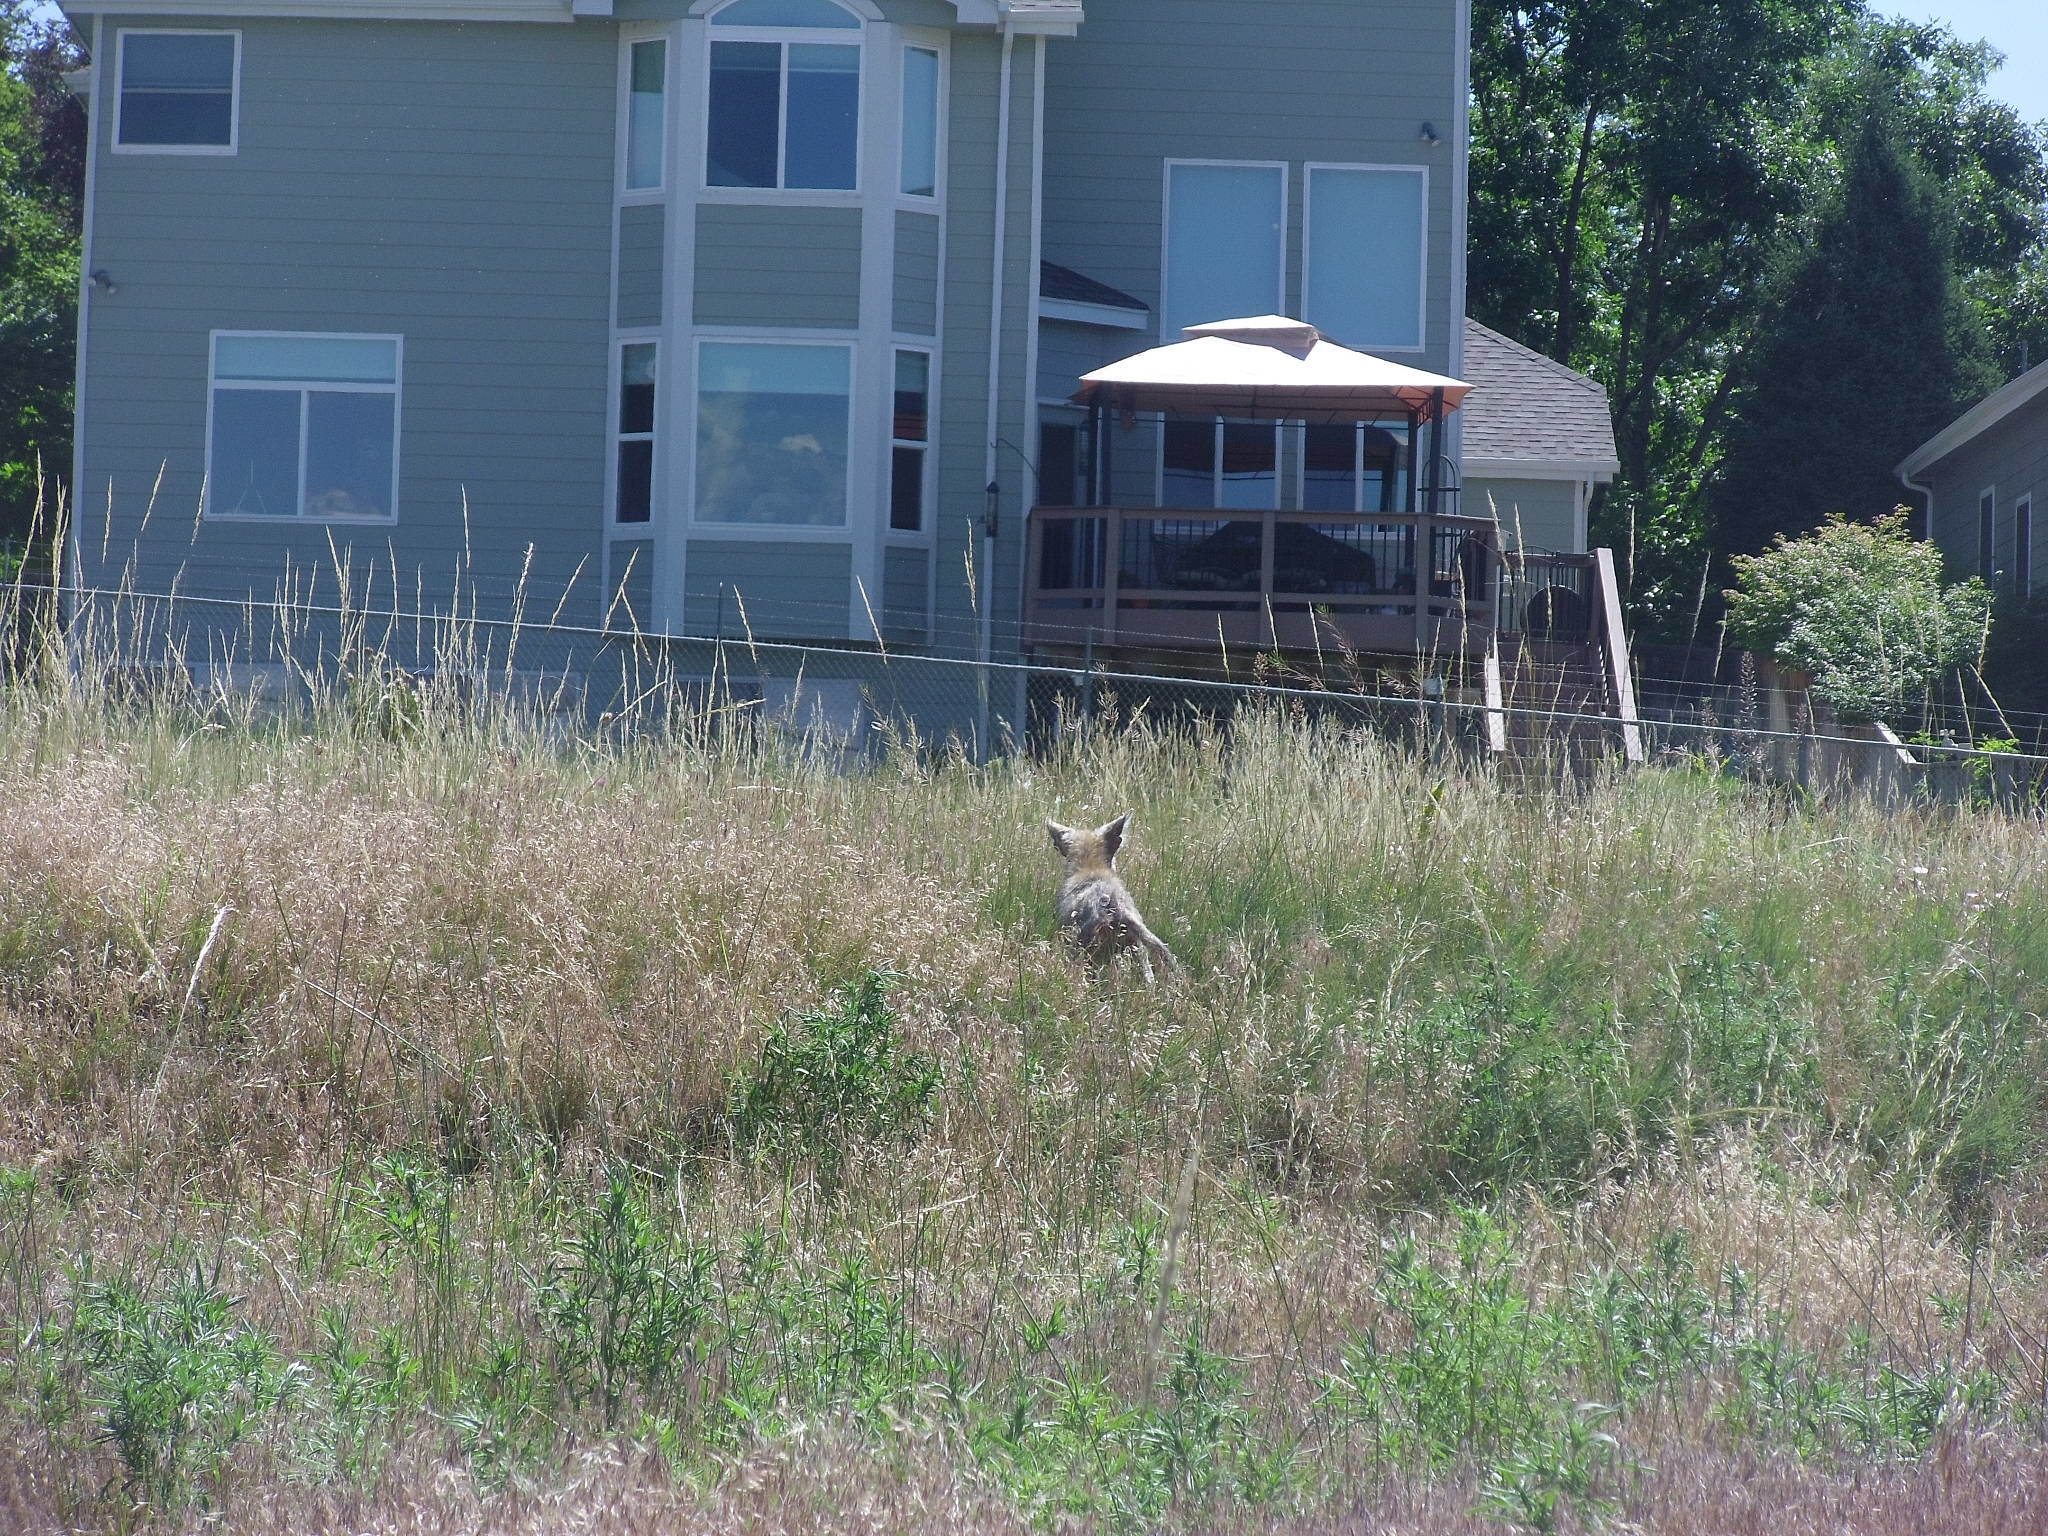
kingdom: Animalia
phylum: Chordata
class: Mammalia
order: Carnivora
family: Canidae
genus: Canis
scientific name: Canis latrans
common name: Coyote
